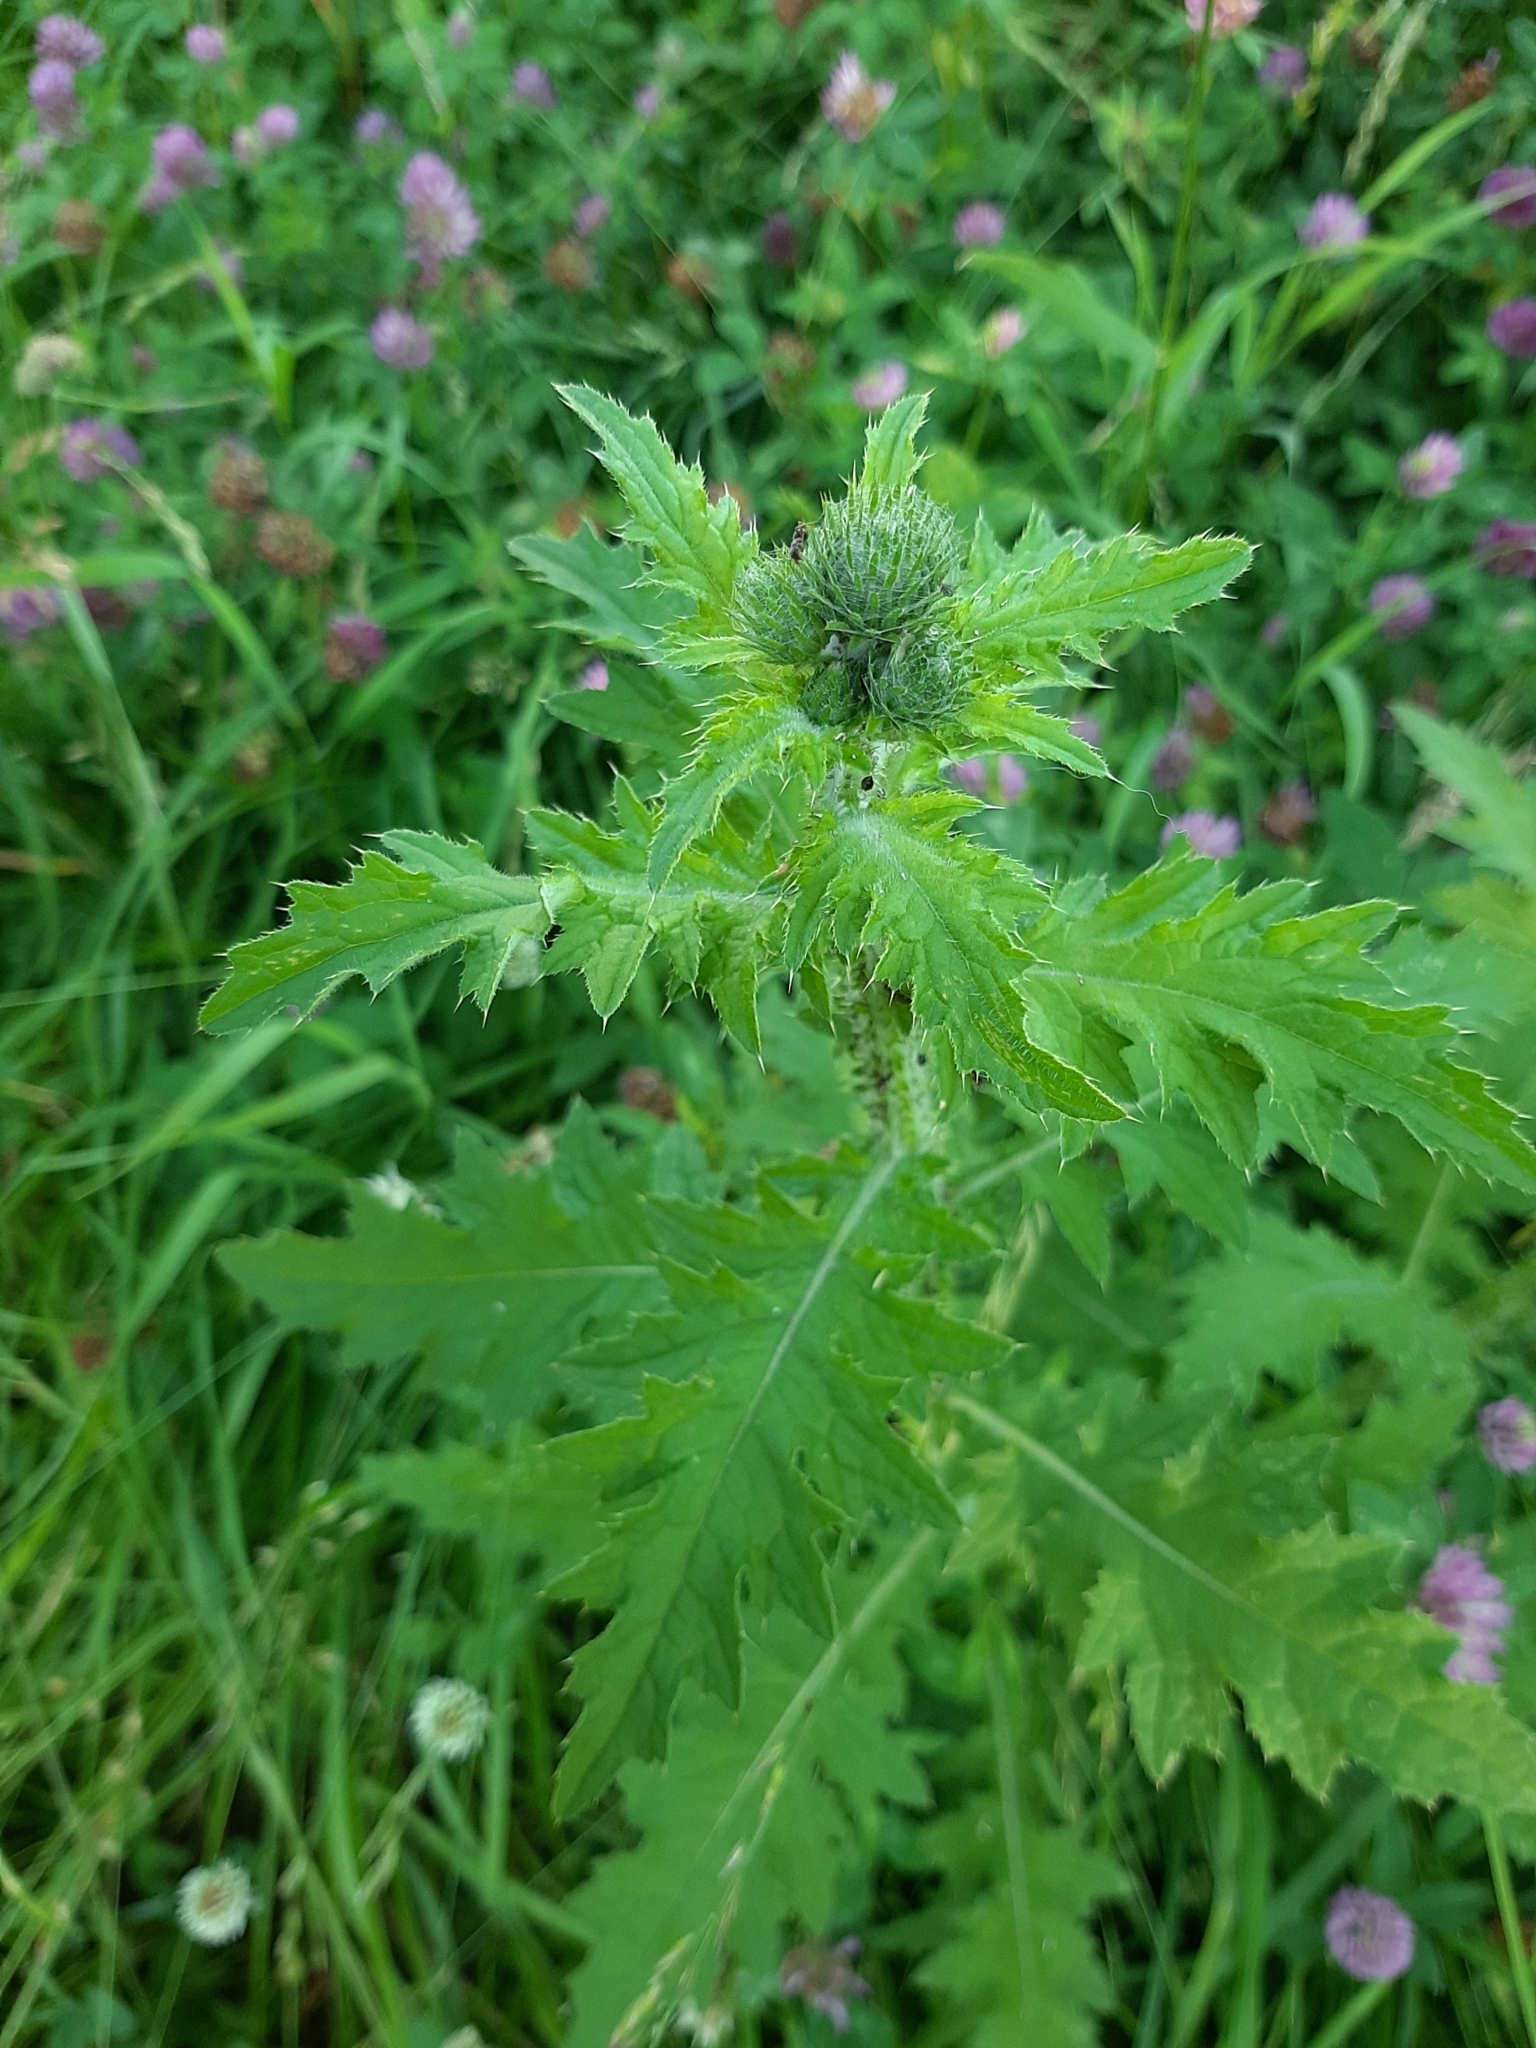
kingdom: Plantae
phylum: Tracheophyta
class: Magnoliopsida
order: Asterales
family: Asteraceae
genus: Carduus
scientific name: Carduus crispus
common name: Welted thistle
